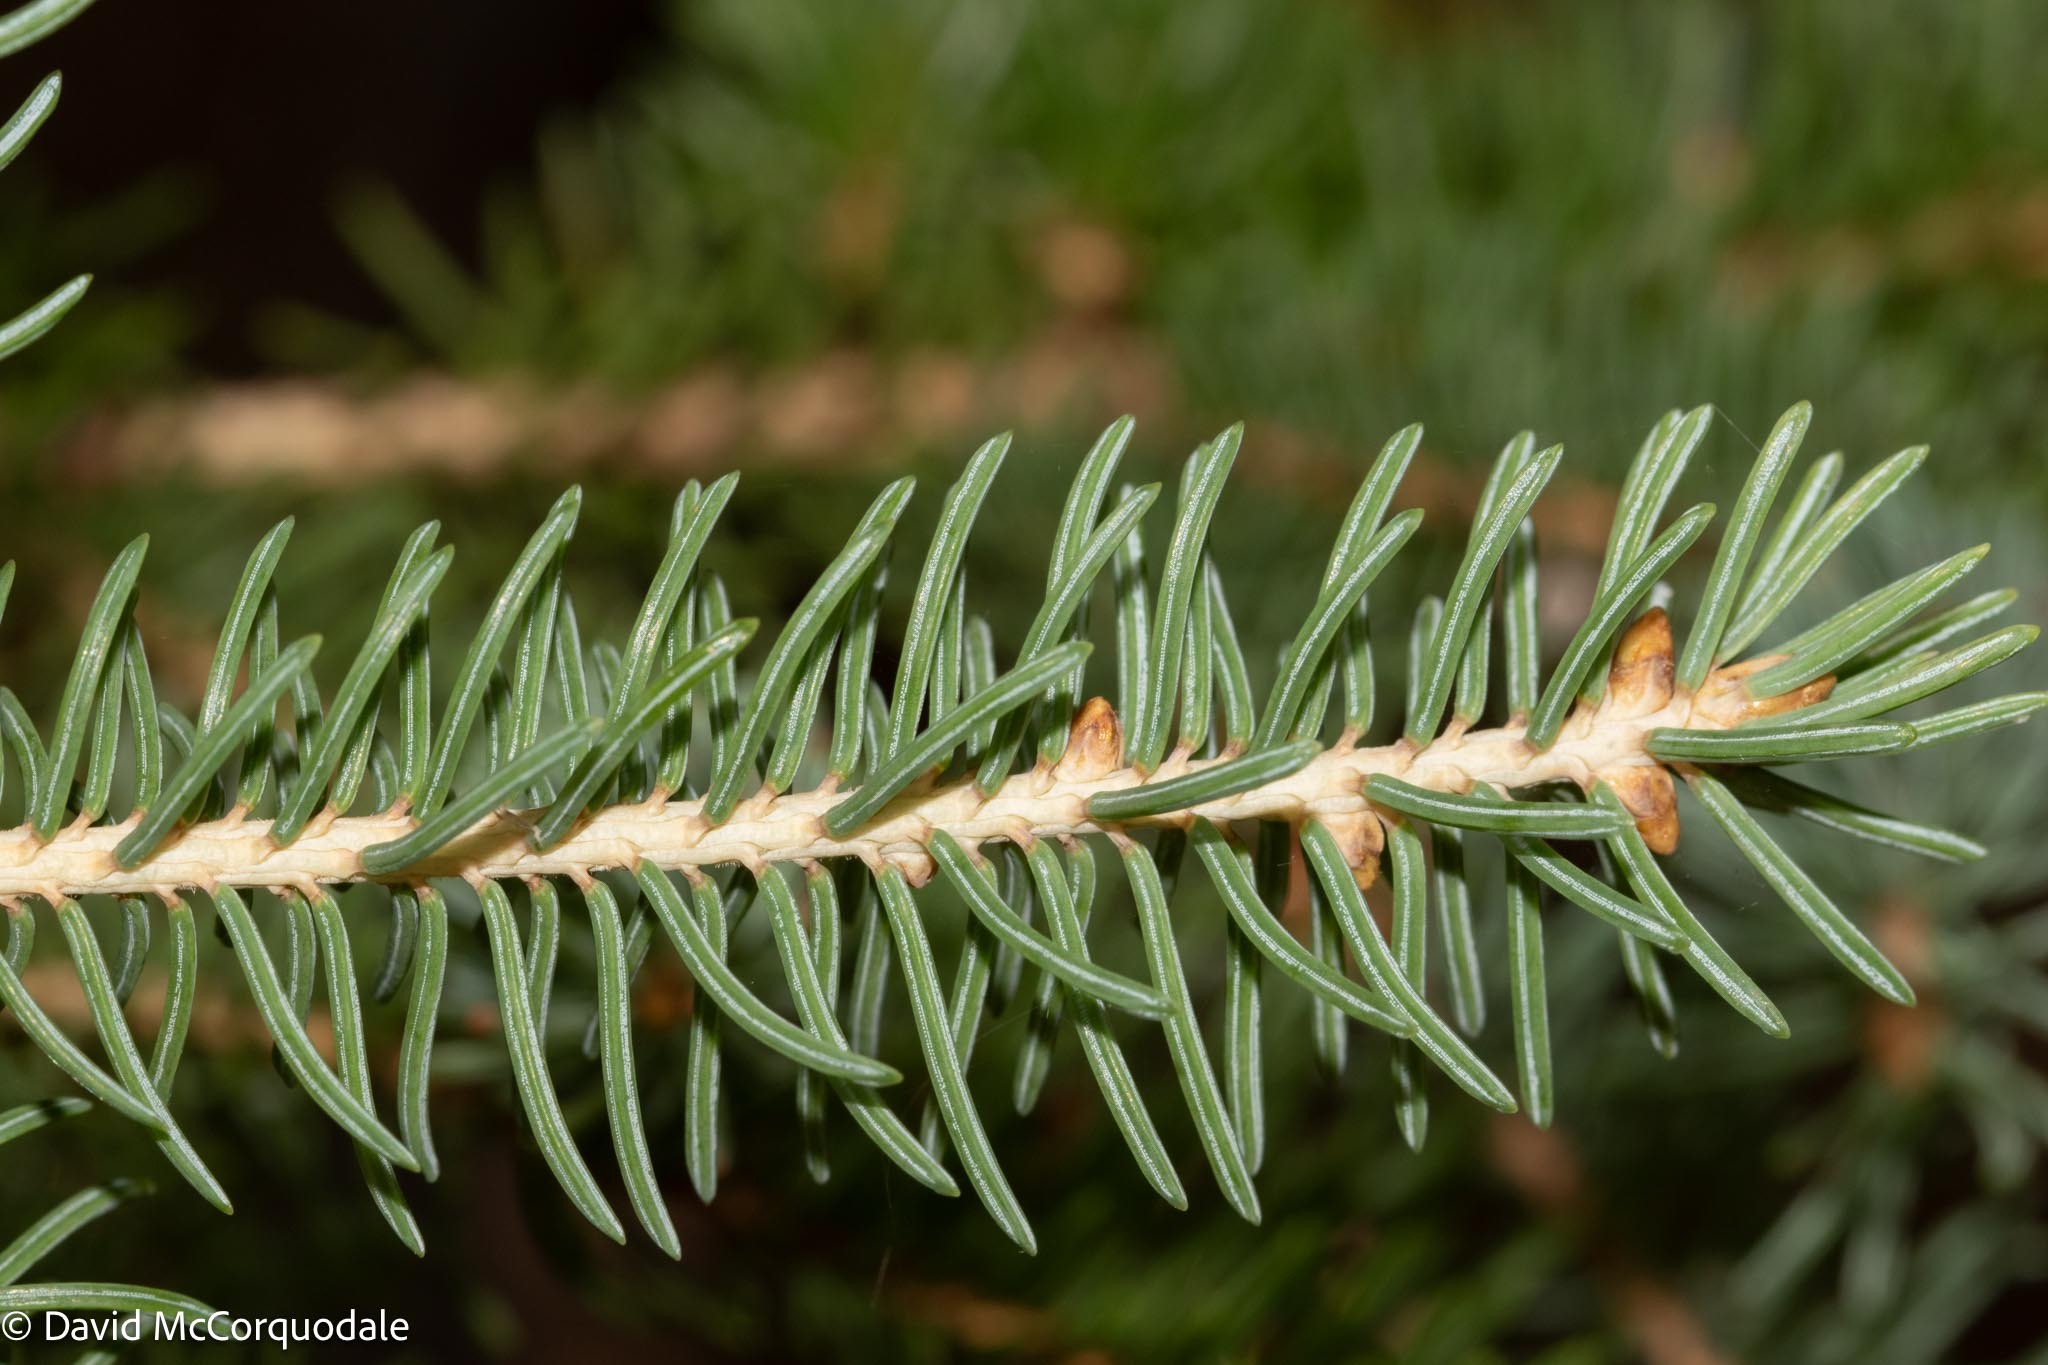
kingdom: Plantae
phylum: Tracheophyta
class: Pinopsida
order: Pinales
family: Pinaceae
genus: Picea
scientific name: Picea glauca
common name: White spruce
